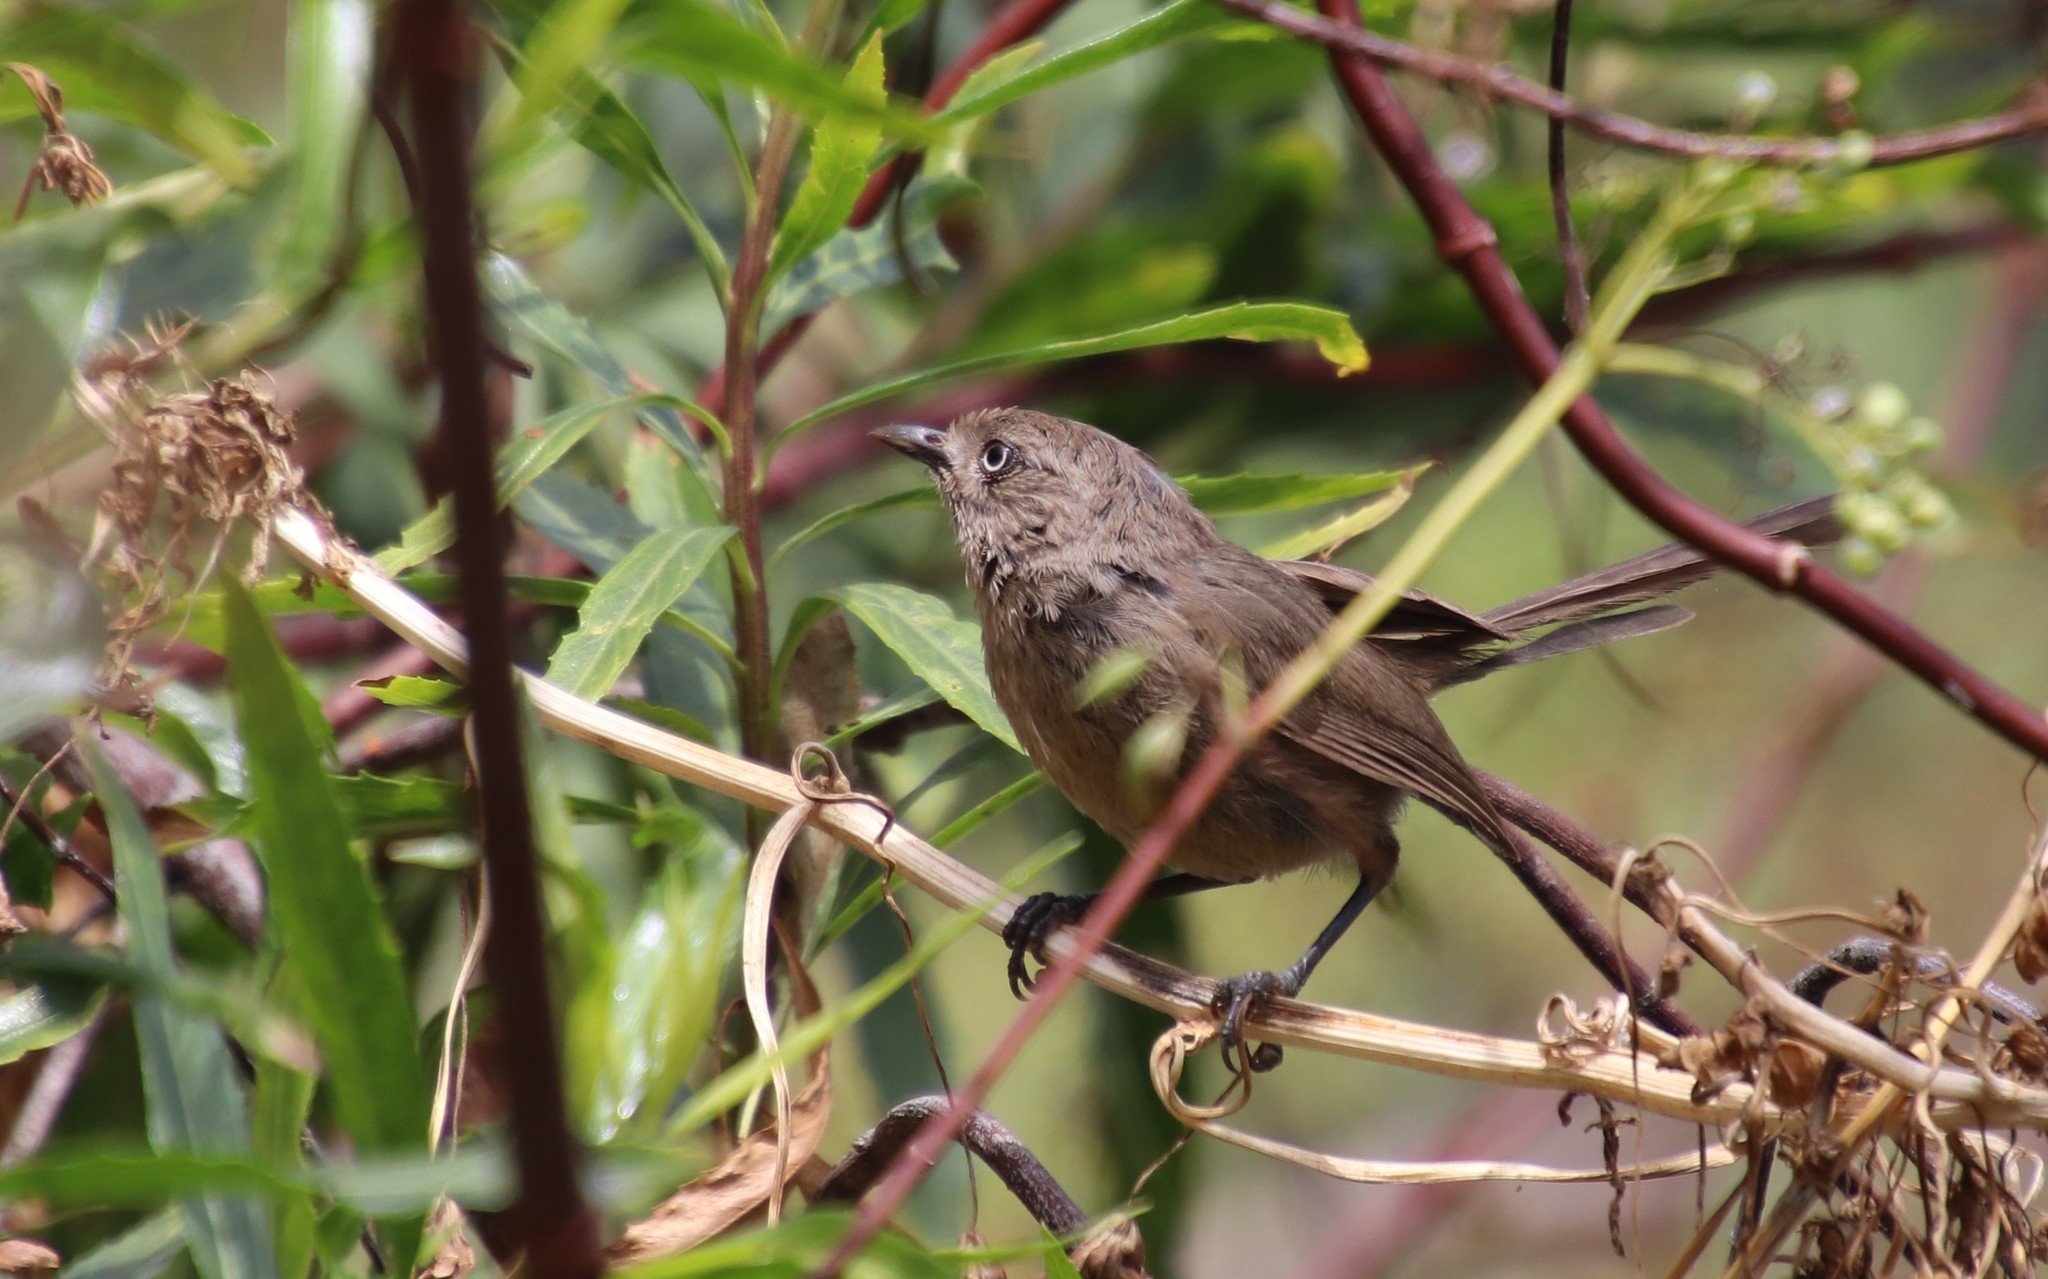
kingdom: Animalia
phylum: Chordata
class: Aves
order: Passeriformes
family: Sylviidae
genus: Chamaea
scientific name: Chamaea fasciata
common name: Wrentit
